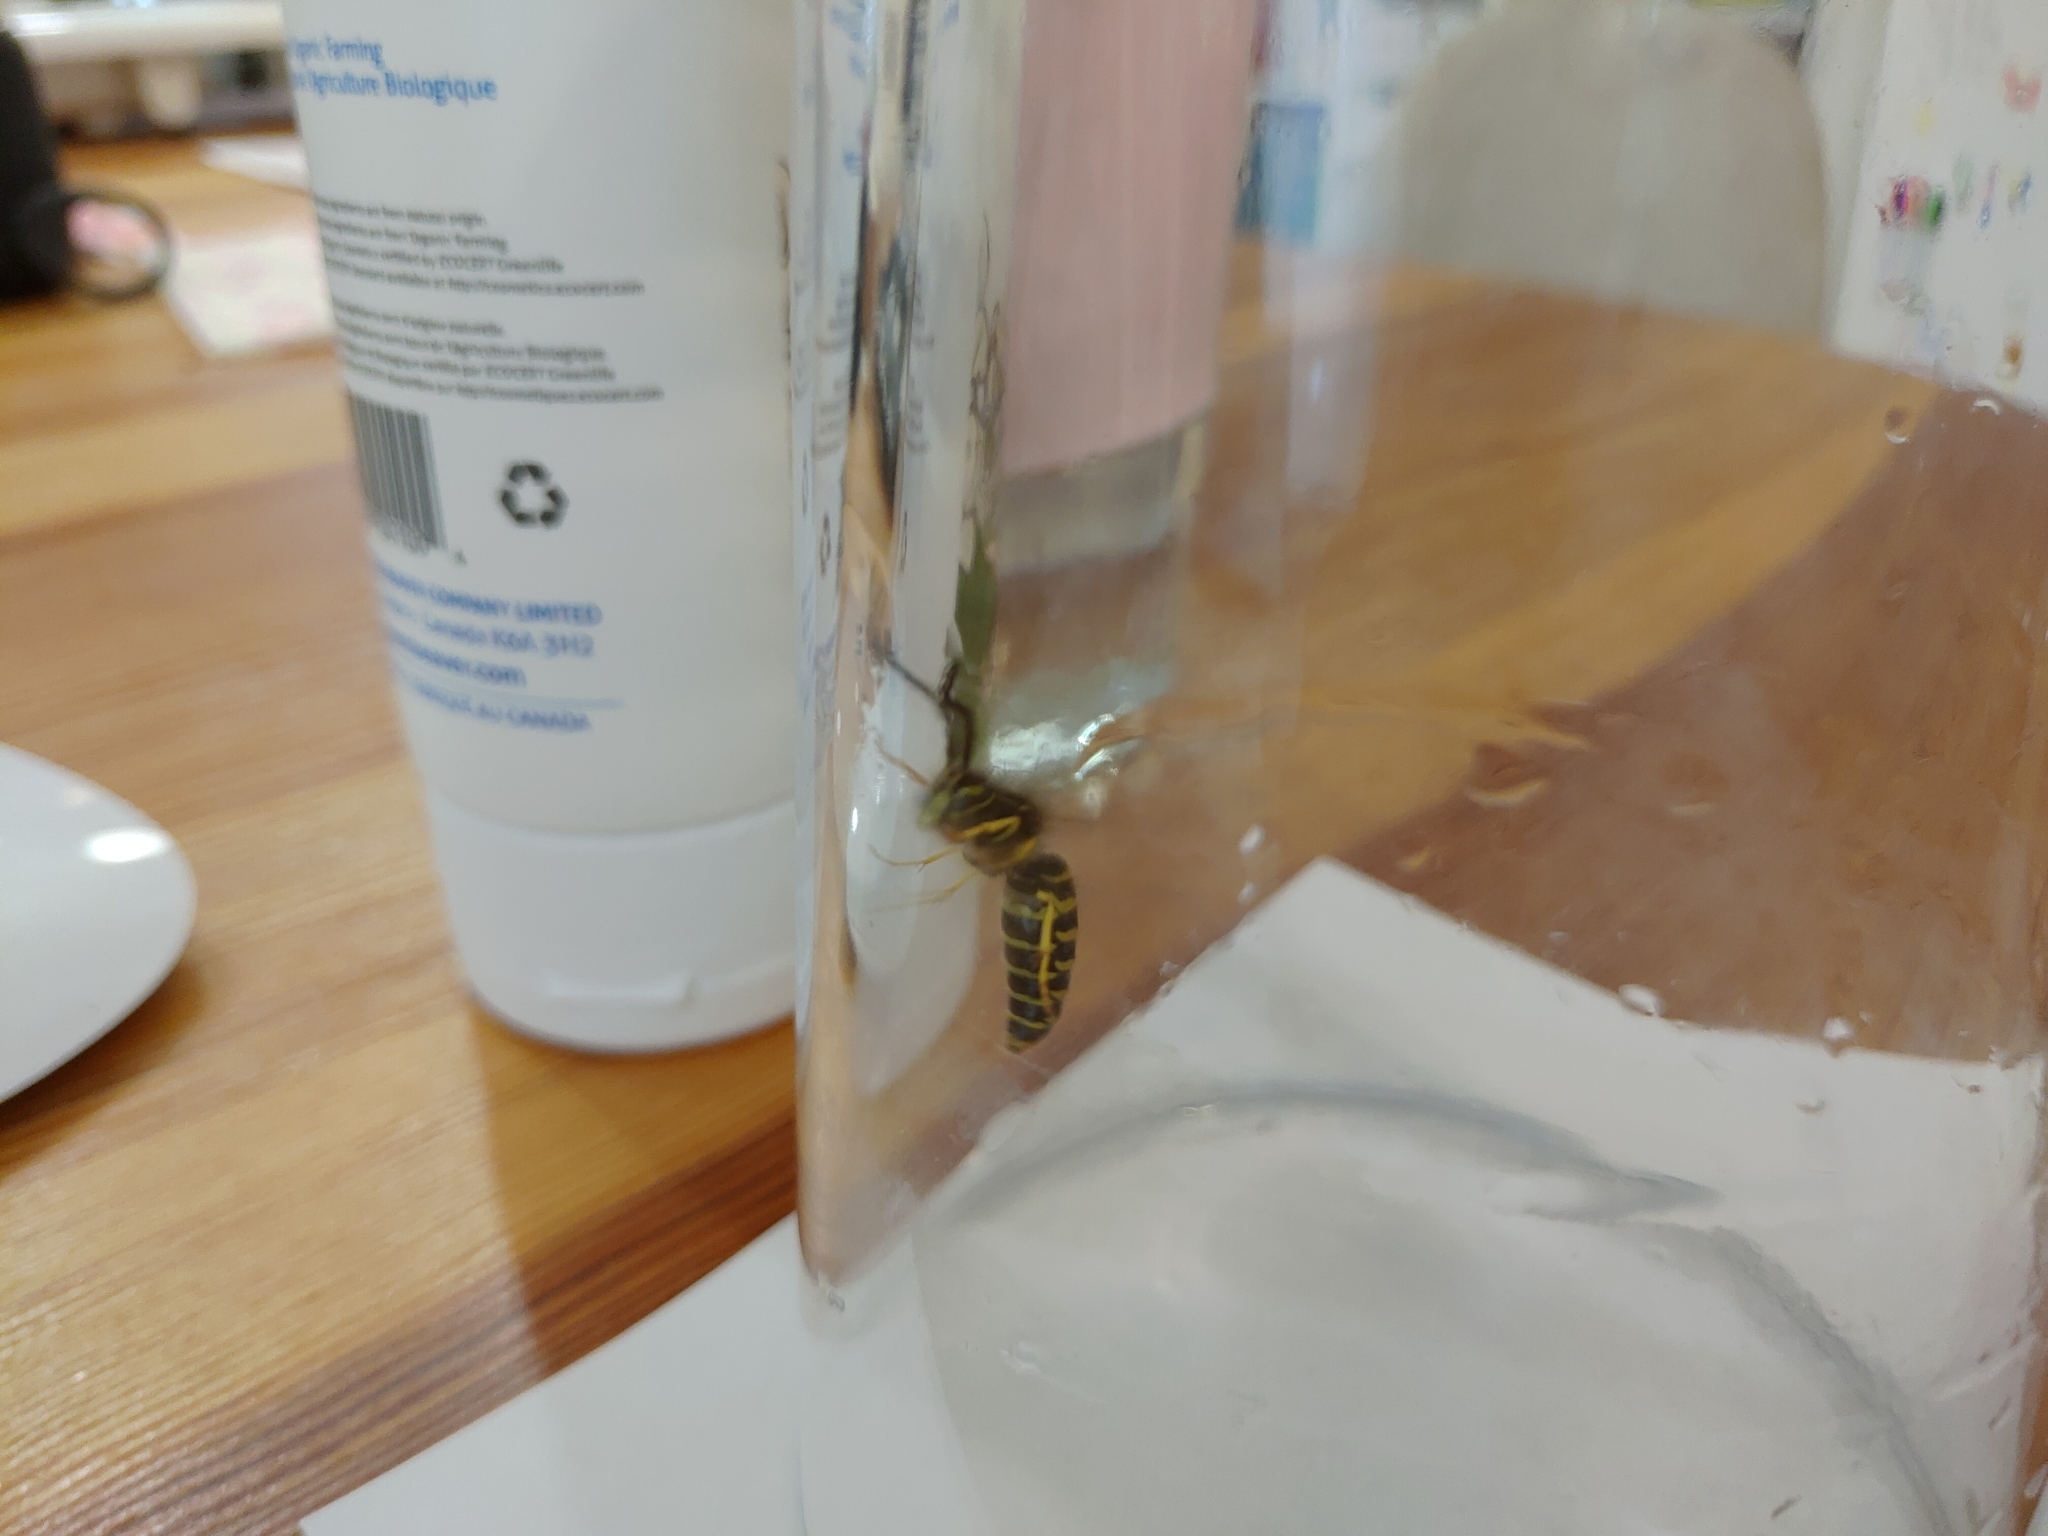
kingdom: Animalia
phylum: Arthropoda
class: Insecta
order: Hymenoptera
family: Vespidae
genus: Vespula
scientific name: Vespula
